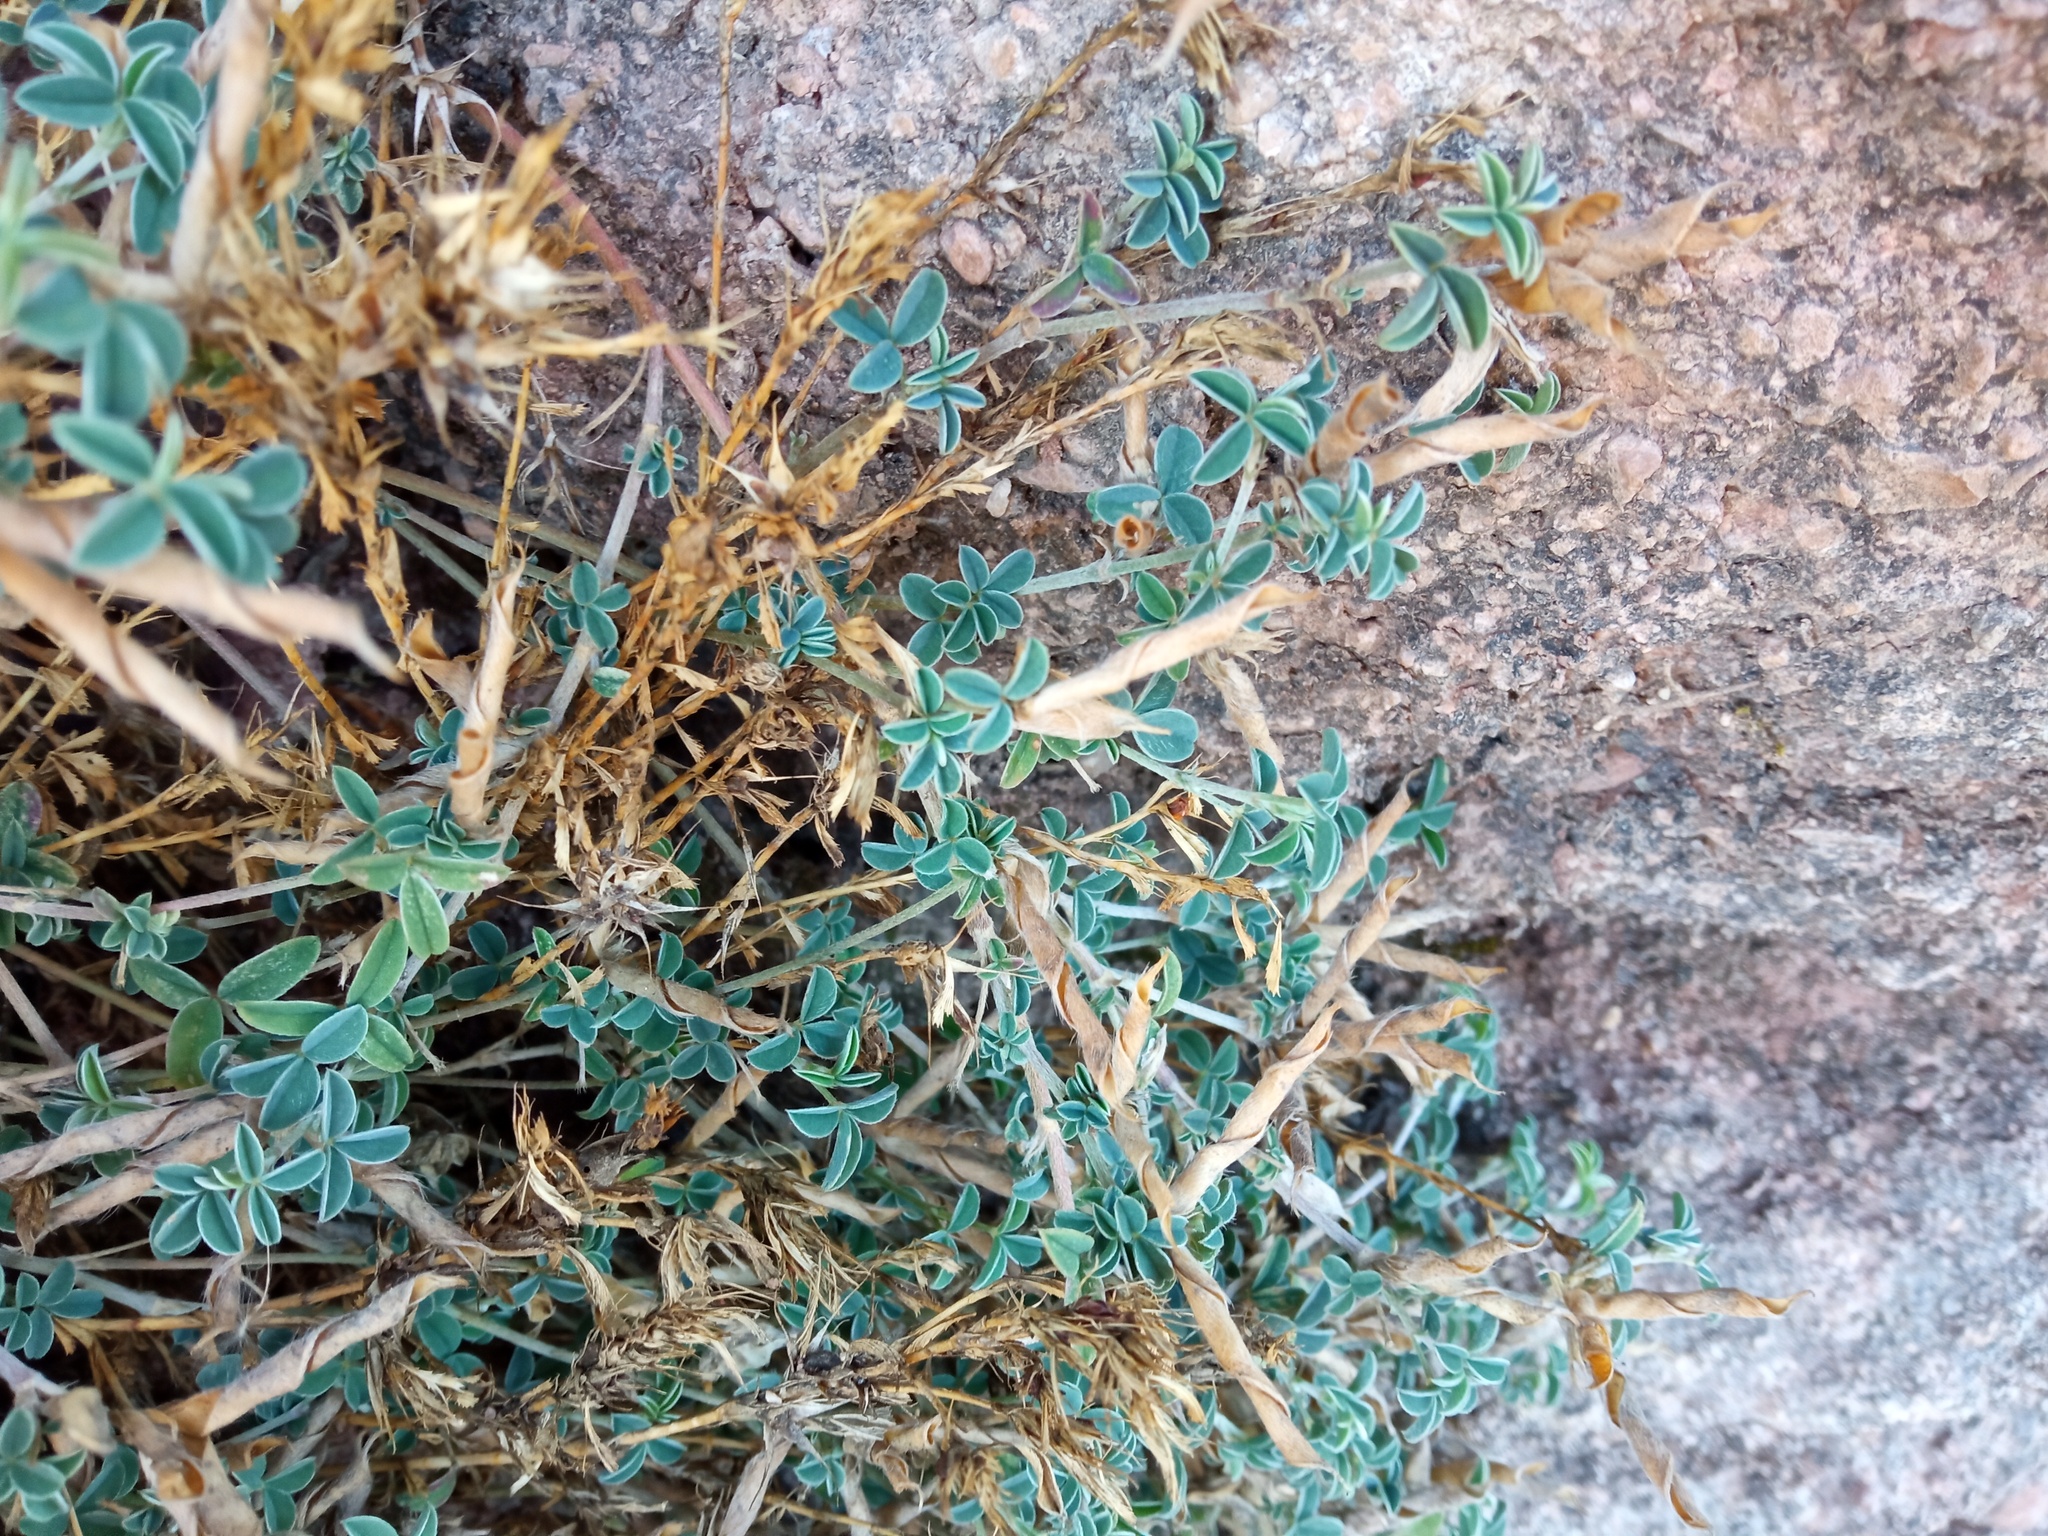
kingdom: Plantae
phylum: Tracheophyta
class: Magnoliopsida
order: Fabales
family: Fabaceae
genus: Argyrolobium
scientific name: Argyrolobium zanonii
